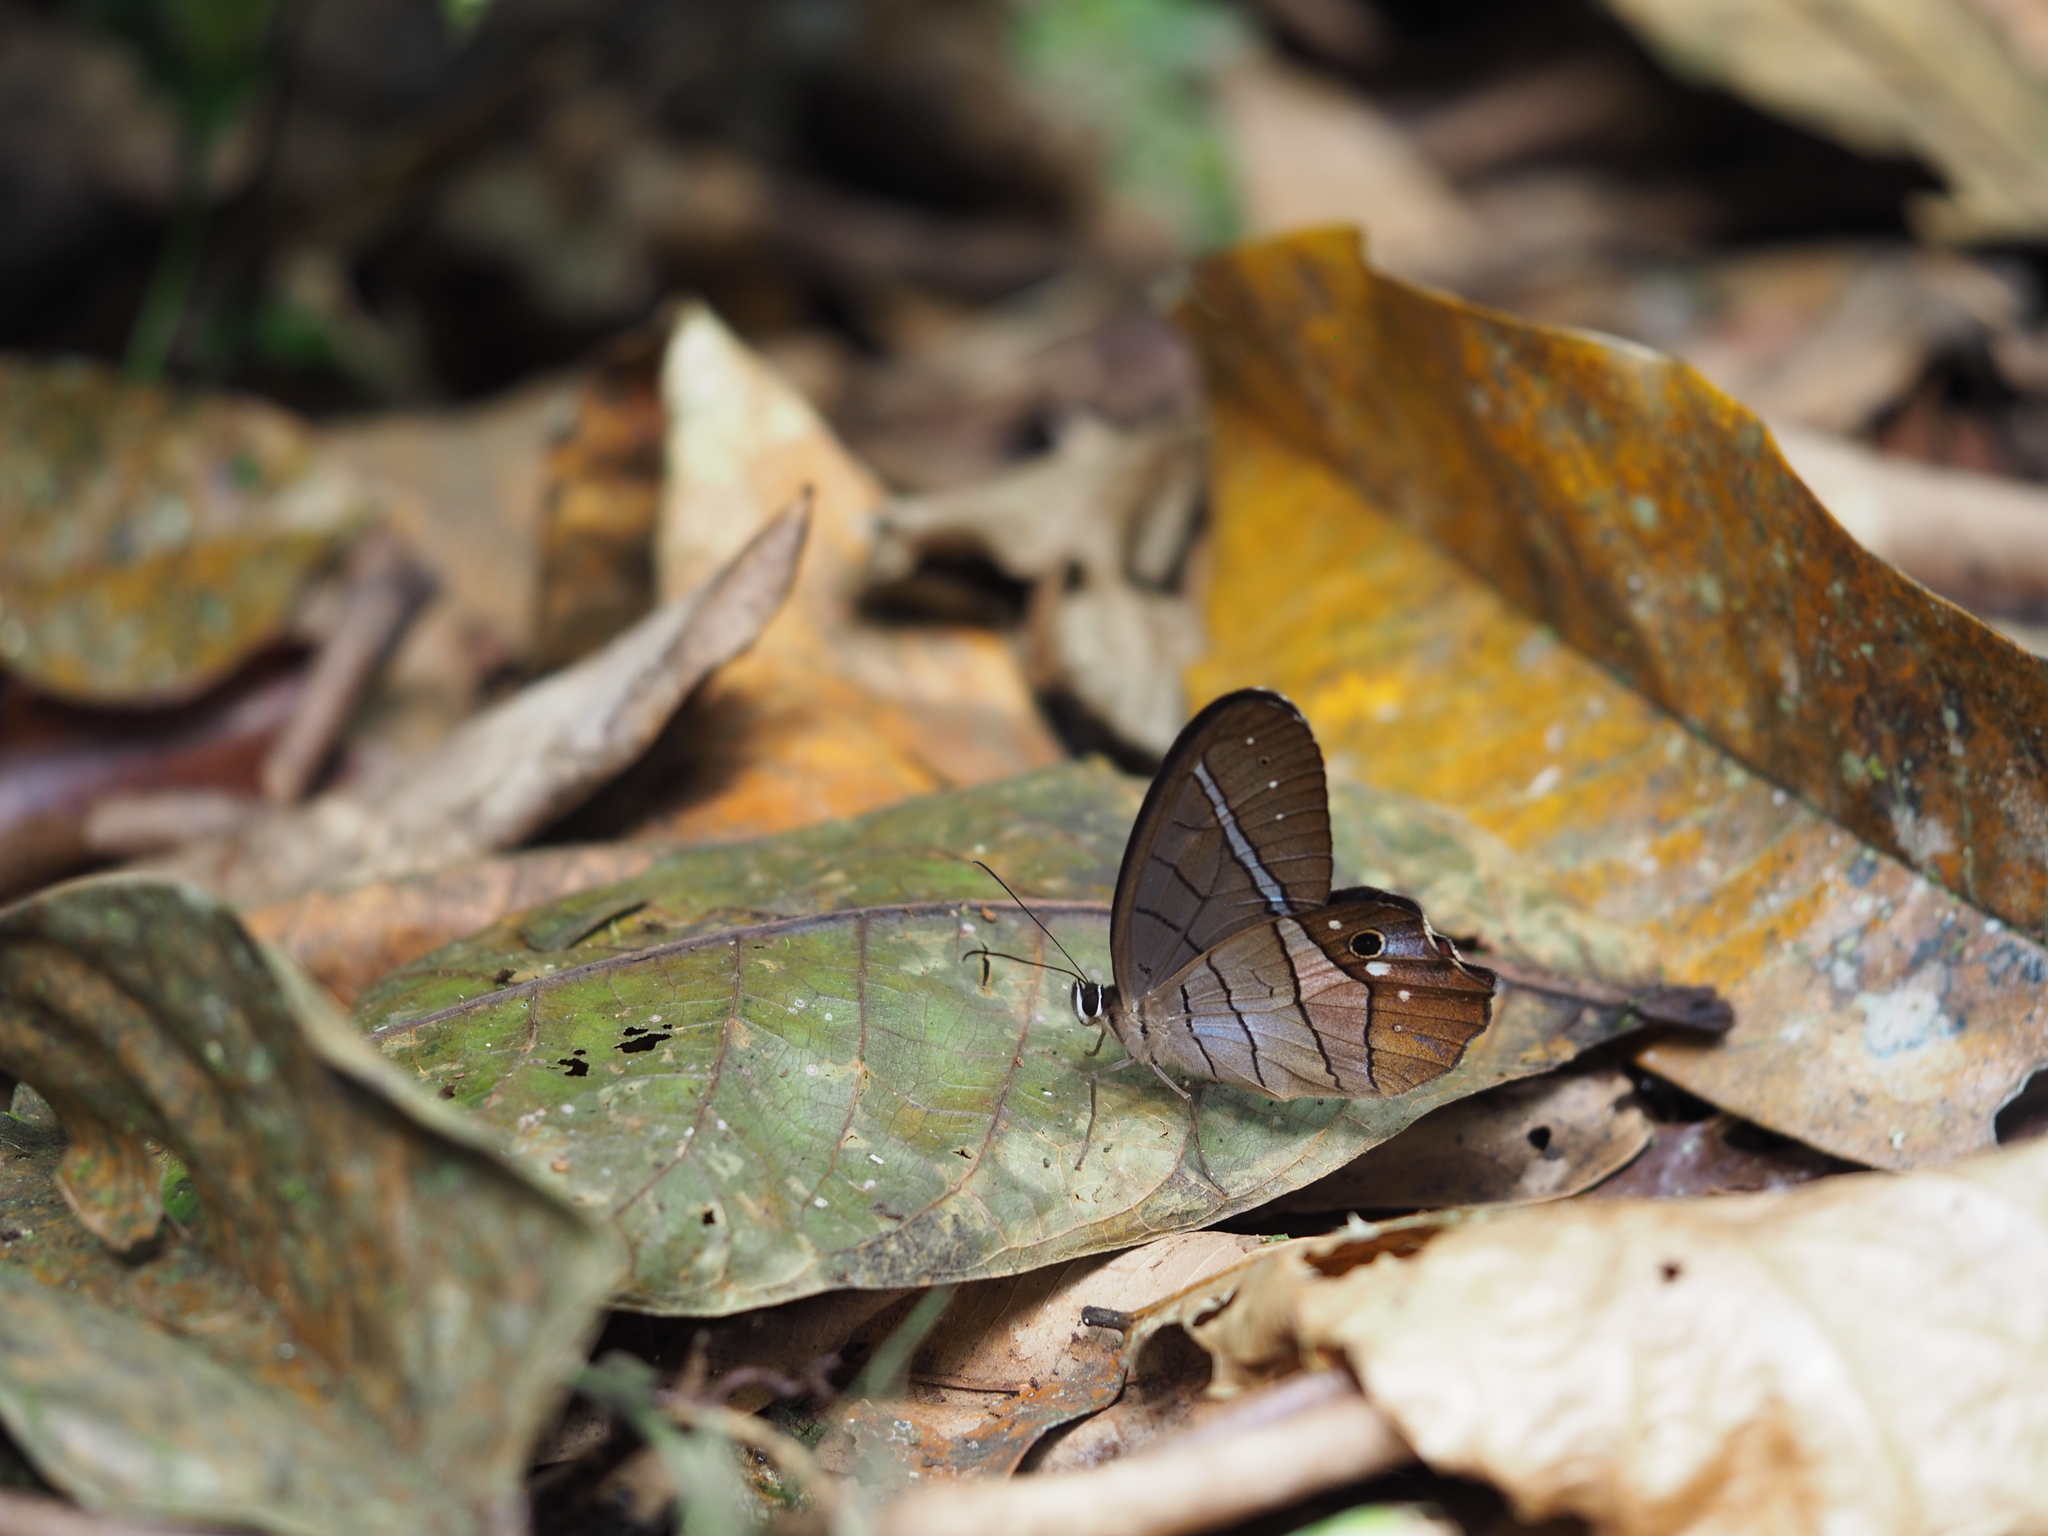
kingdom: Animalia
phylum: Arthropoda
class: Insecta
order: Lepidoptera
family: Nymphalidae
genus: Pierella
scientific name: Pierella helvina
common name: Red-washed satyr
